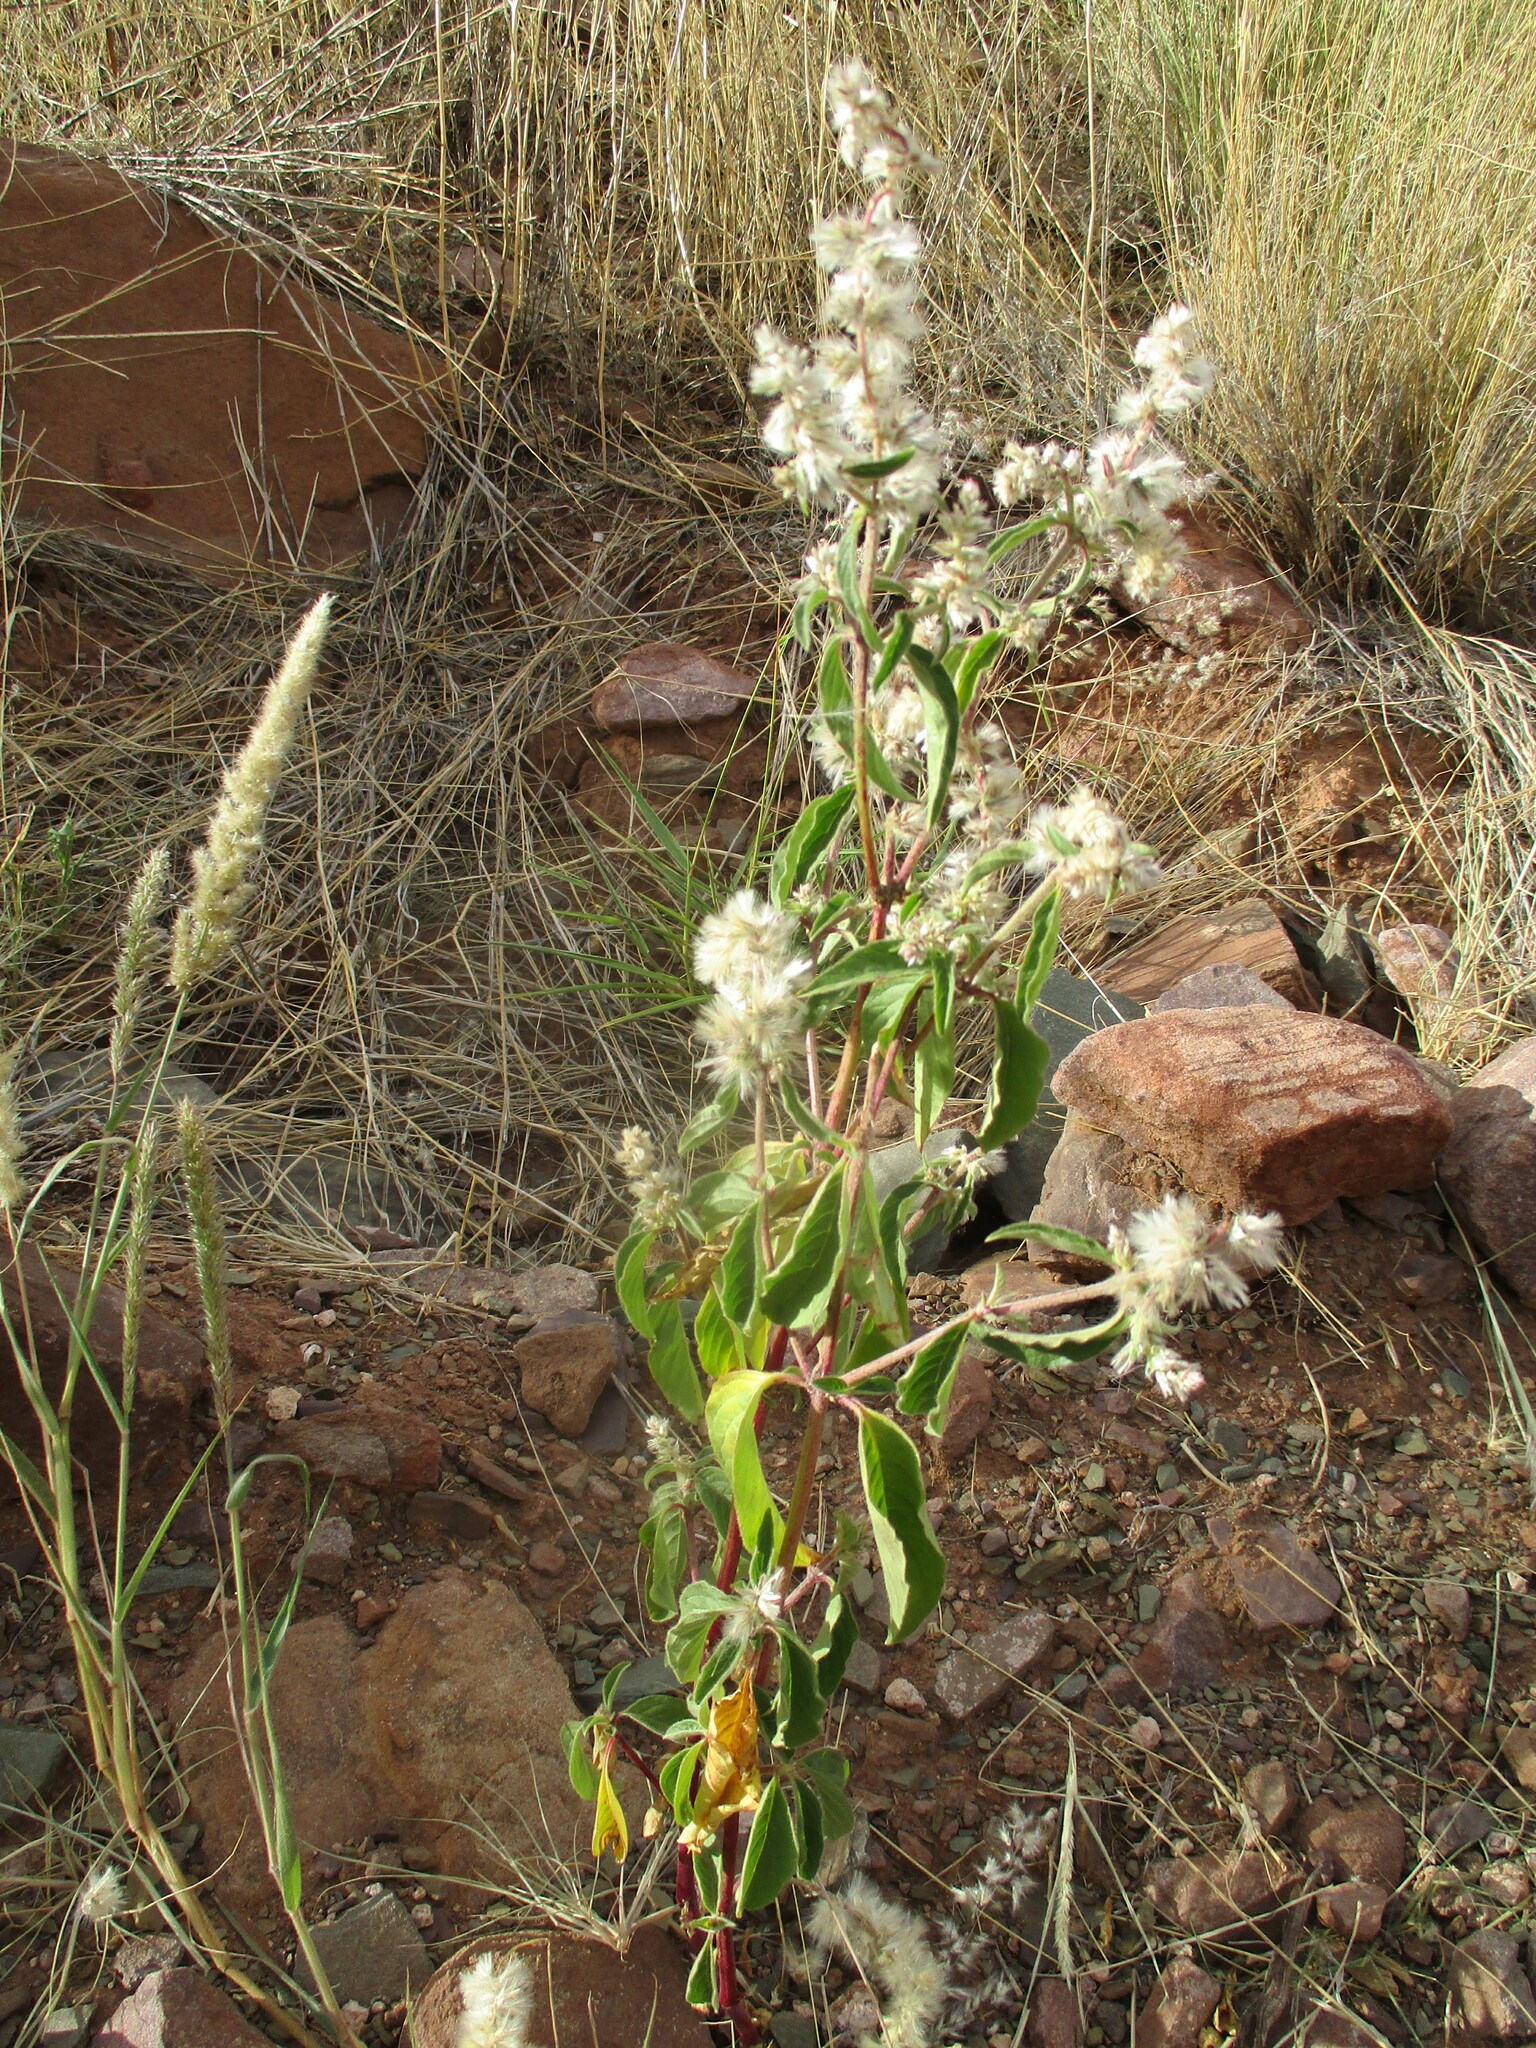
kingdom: Plantae
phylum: Tracheophyta
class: Magnoliopsida
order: Caryophyllales
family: Amaranthaceae
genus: Nelsia
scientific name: Nelsia quadrangula
